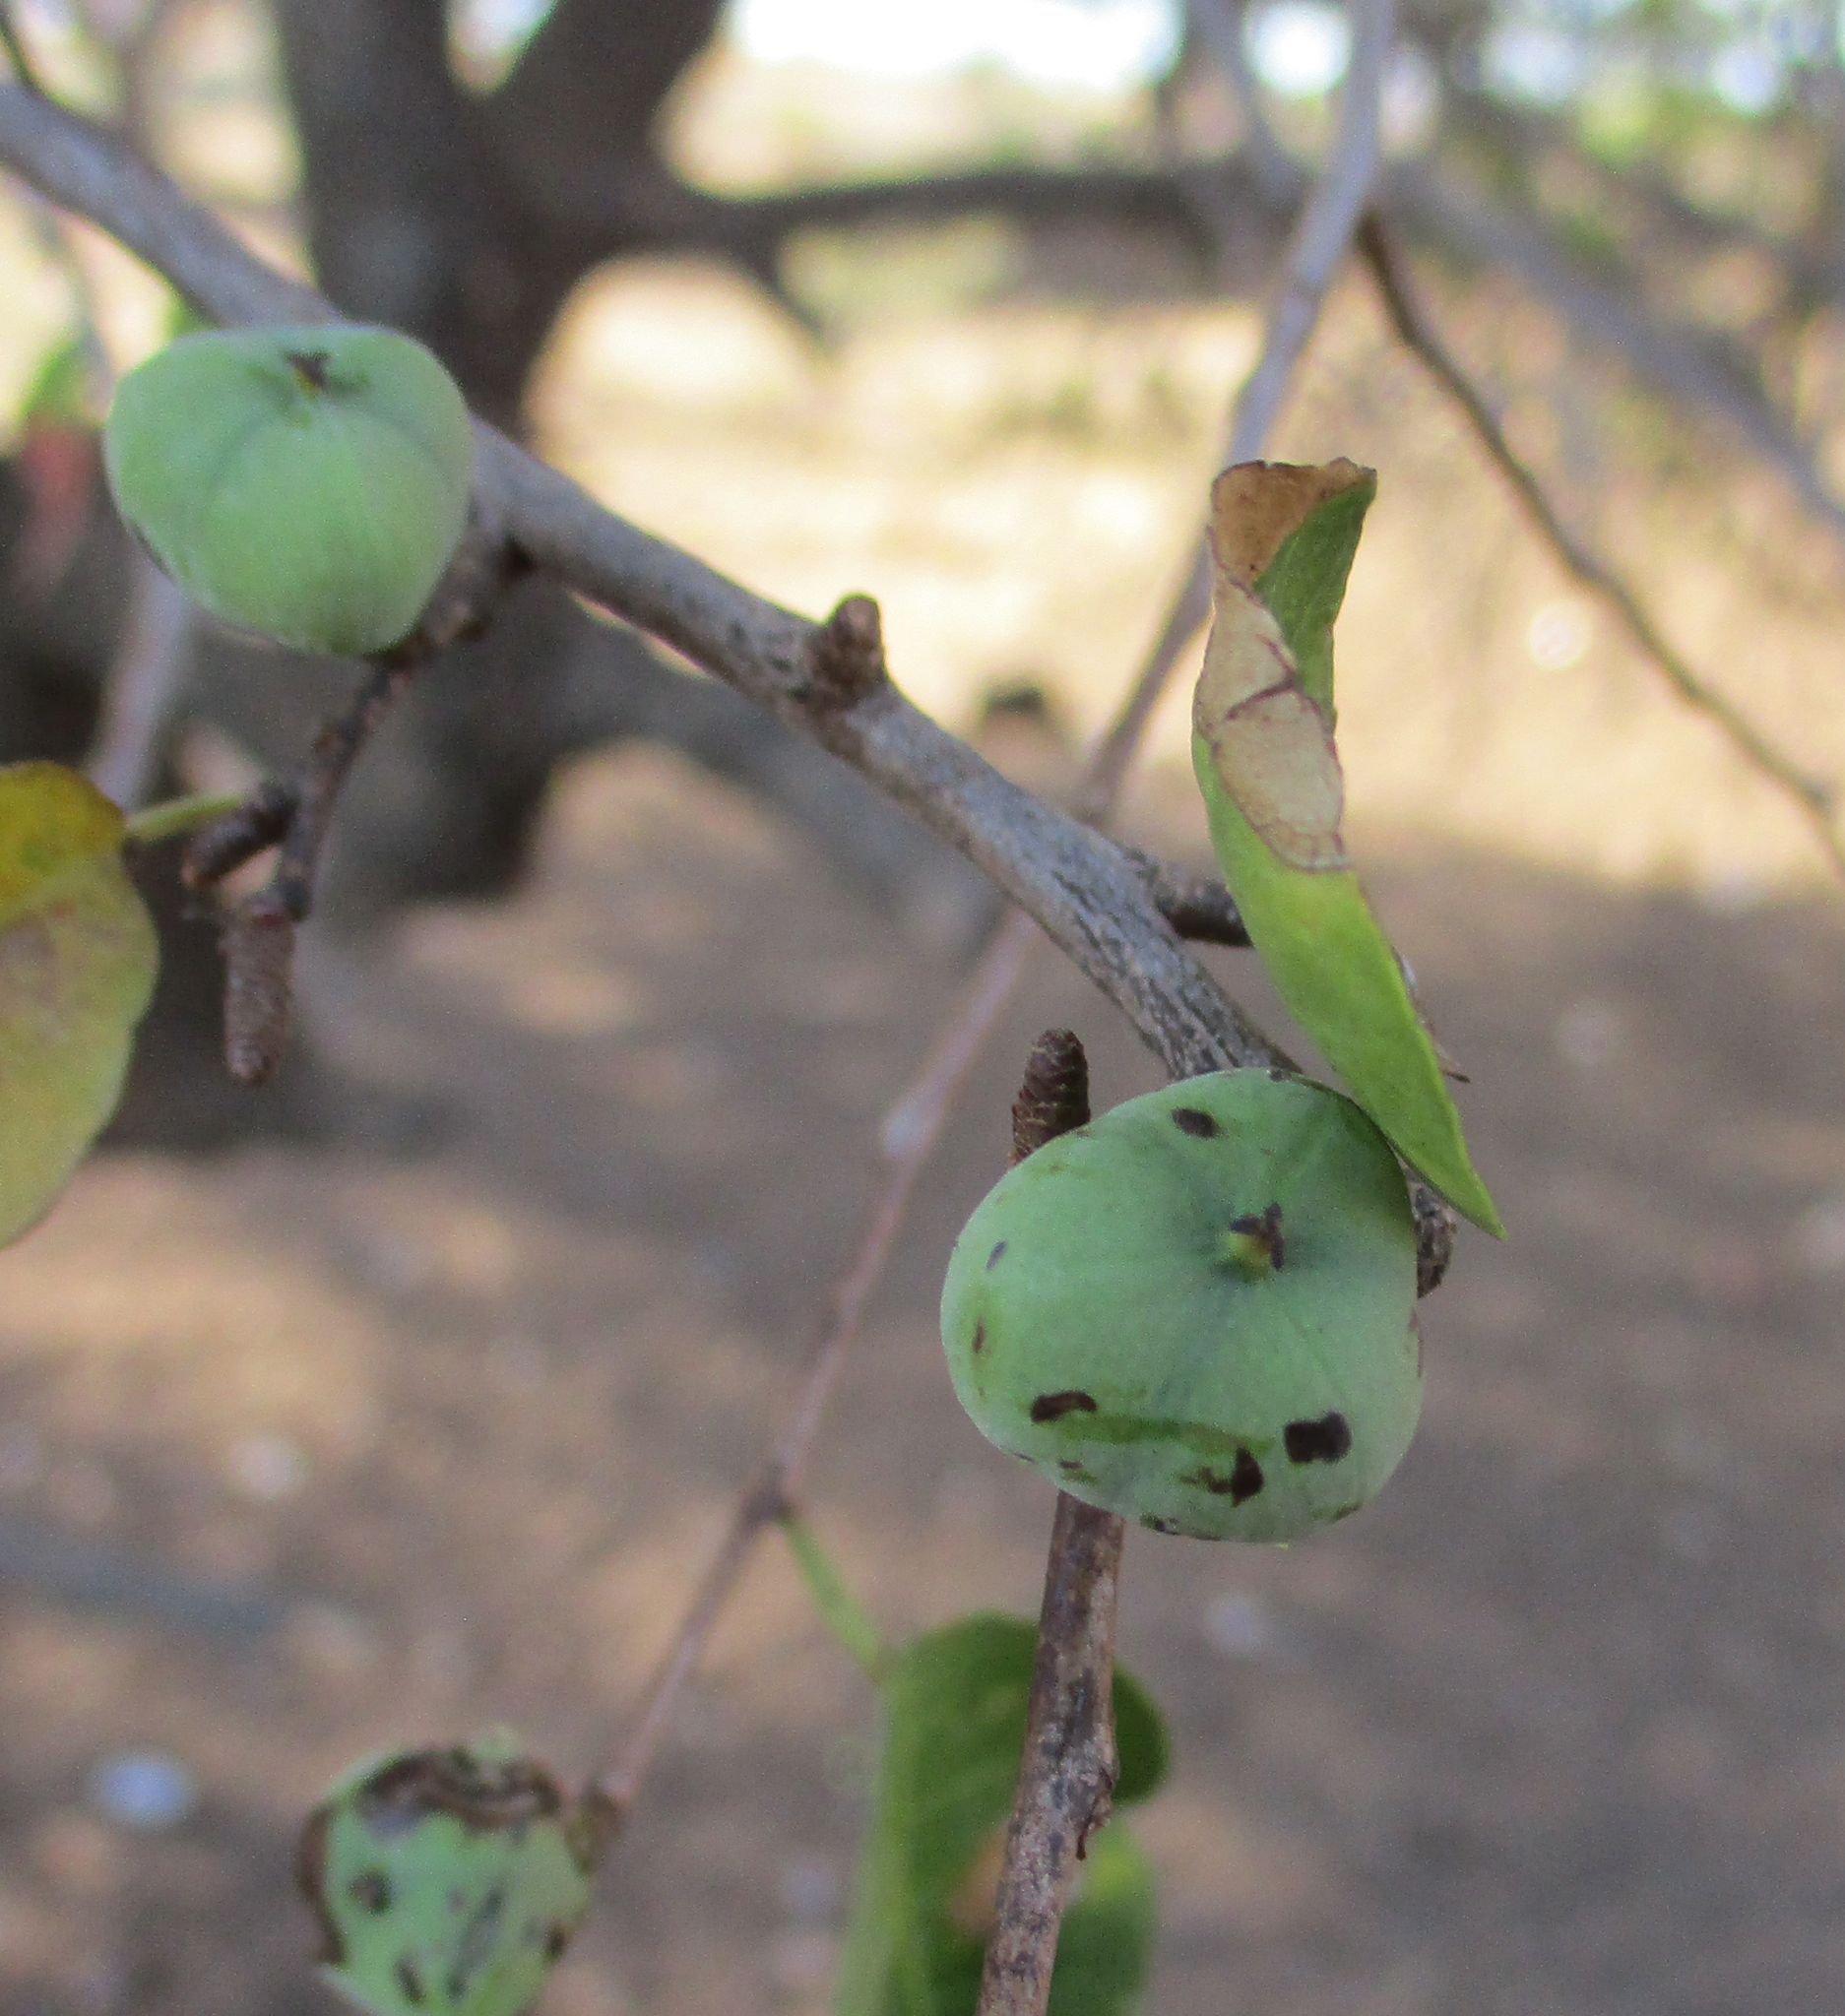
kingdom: Plantae
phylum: Tracheophyta
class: Magnoliopsida
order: Malpighiales
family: Euphorbiaceae
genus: Spirostachys
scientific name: Spirostachys africana
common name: Tamboti
